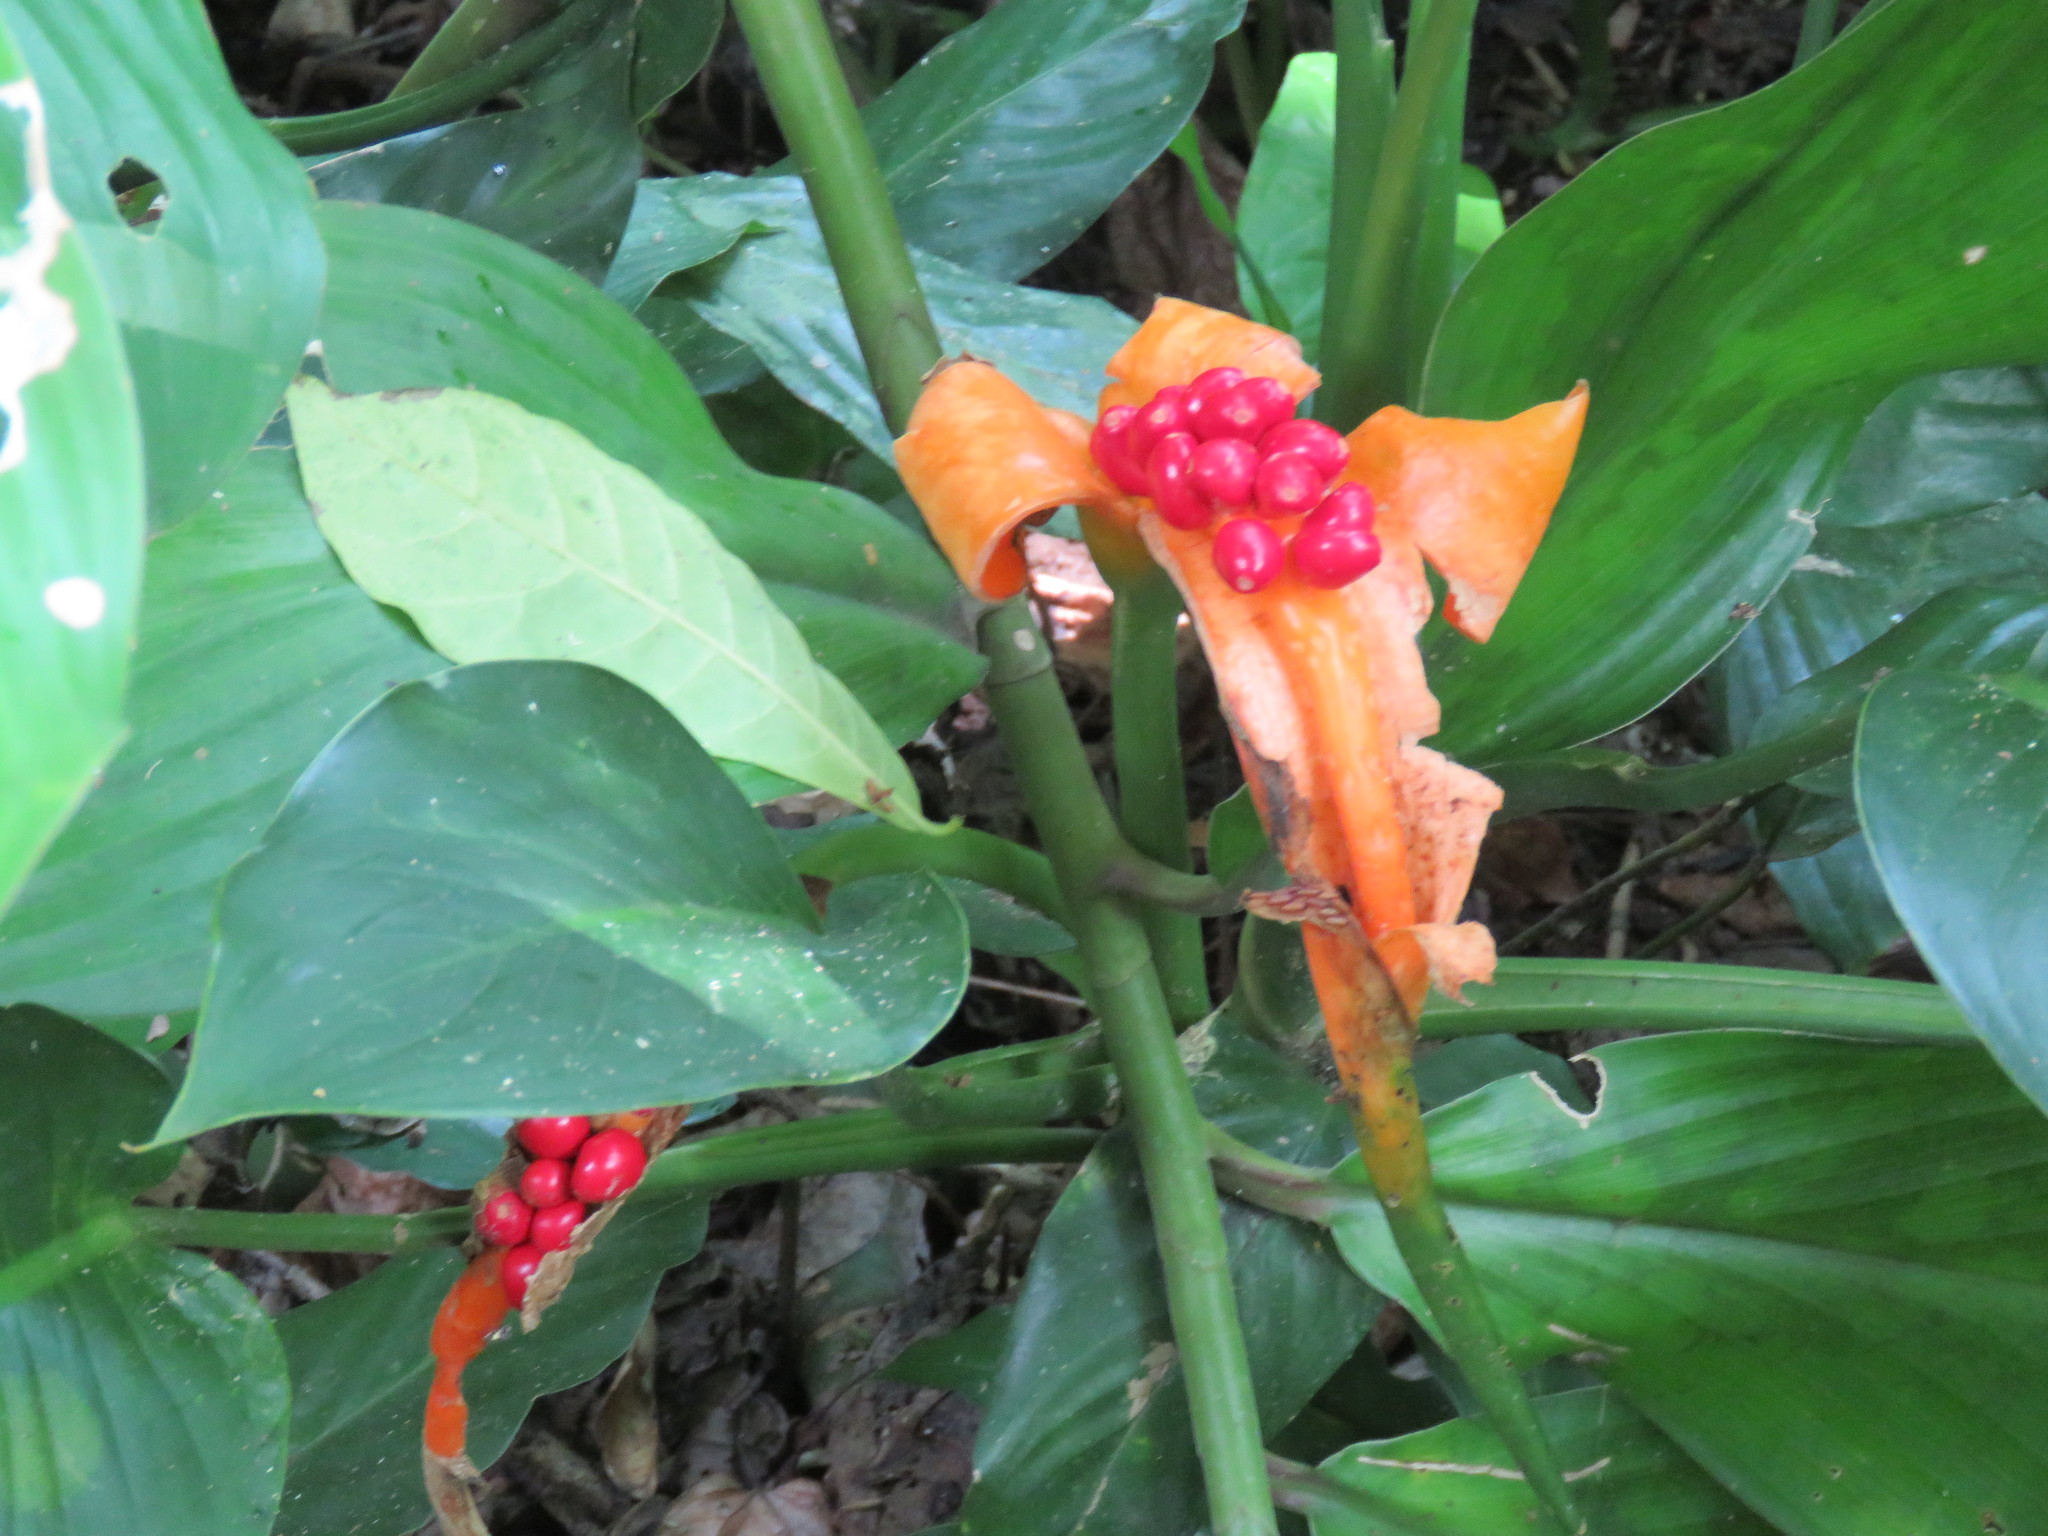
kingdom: Plantae
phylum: Tracheophyta
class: Liliopsida
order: Alismatales
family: Araceae
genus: Dieffenbachia
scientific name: Dieffenbachia wendlandii
